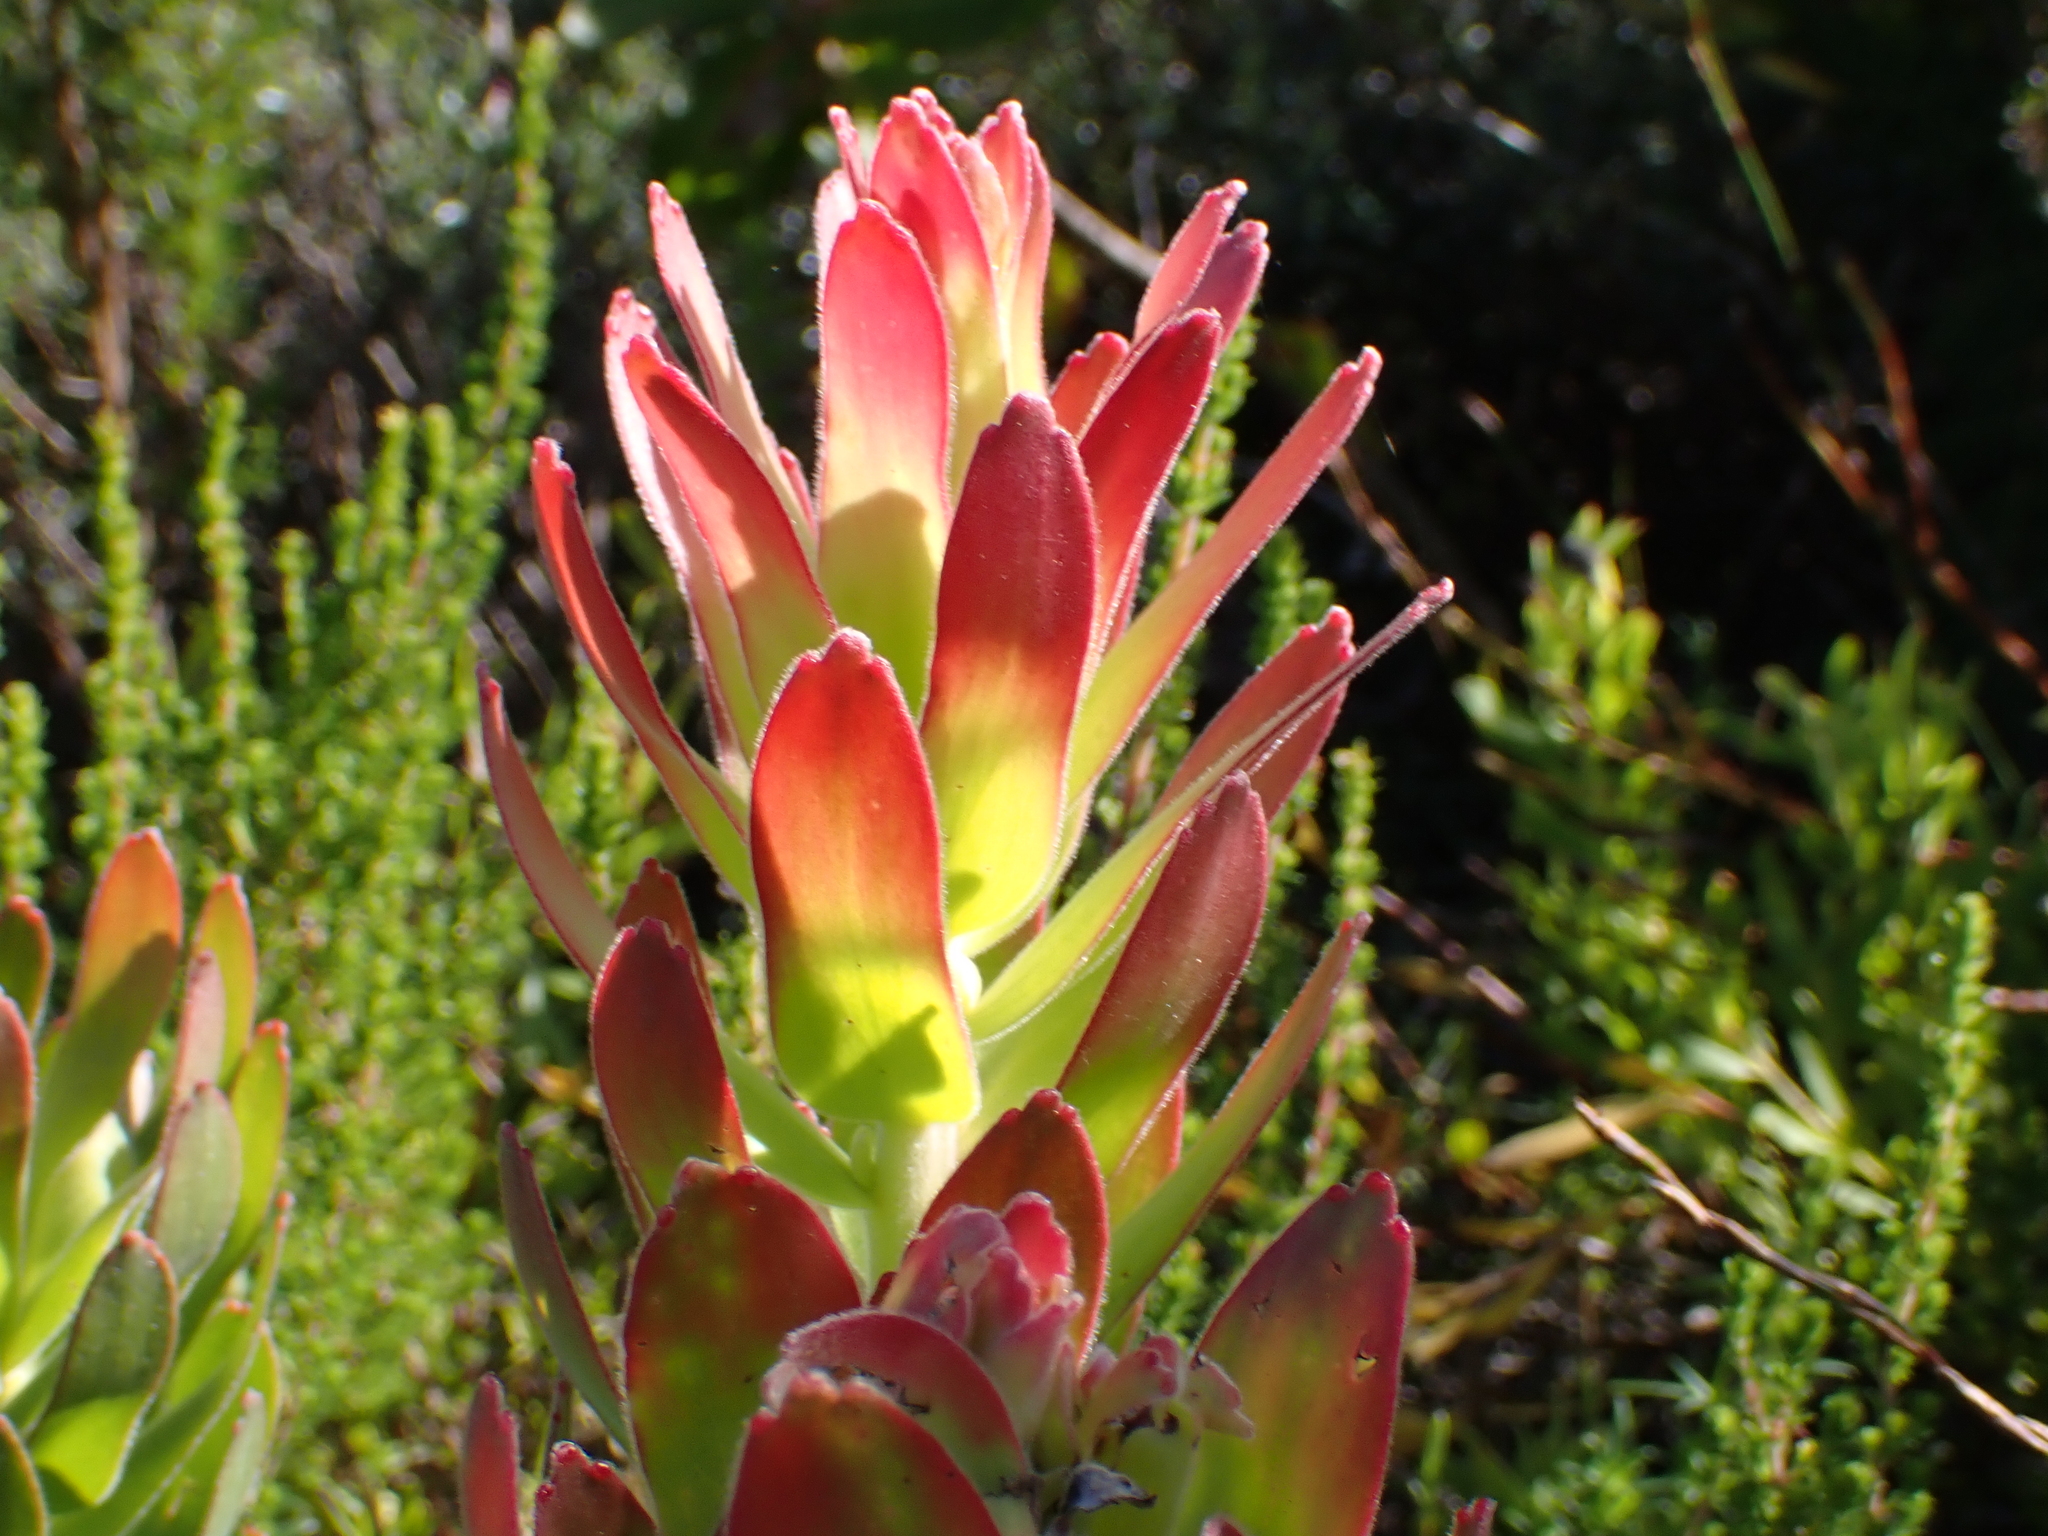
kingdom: Plantae
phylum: Tracheophyta
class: Magnoliopsida
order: Proteales
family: Proteaceae
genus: Mimetes
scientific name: Mimetes cucullatus
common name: Common pagoda
